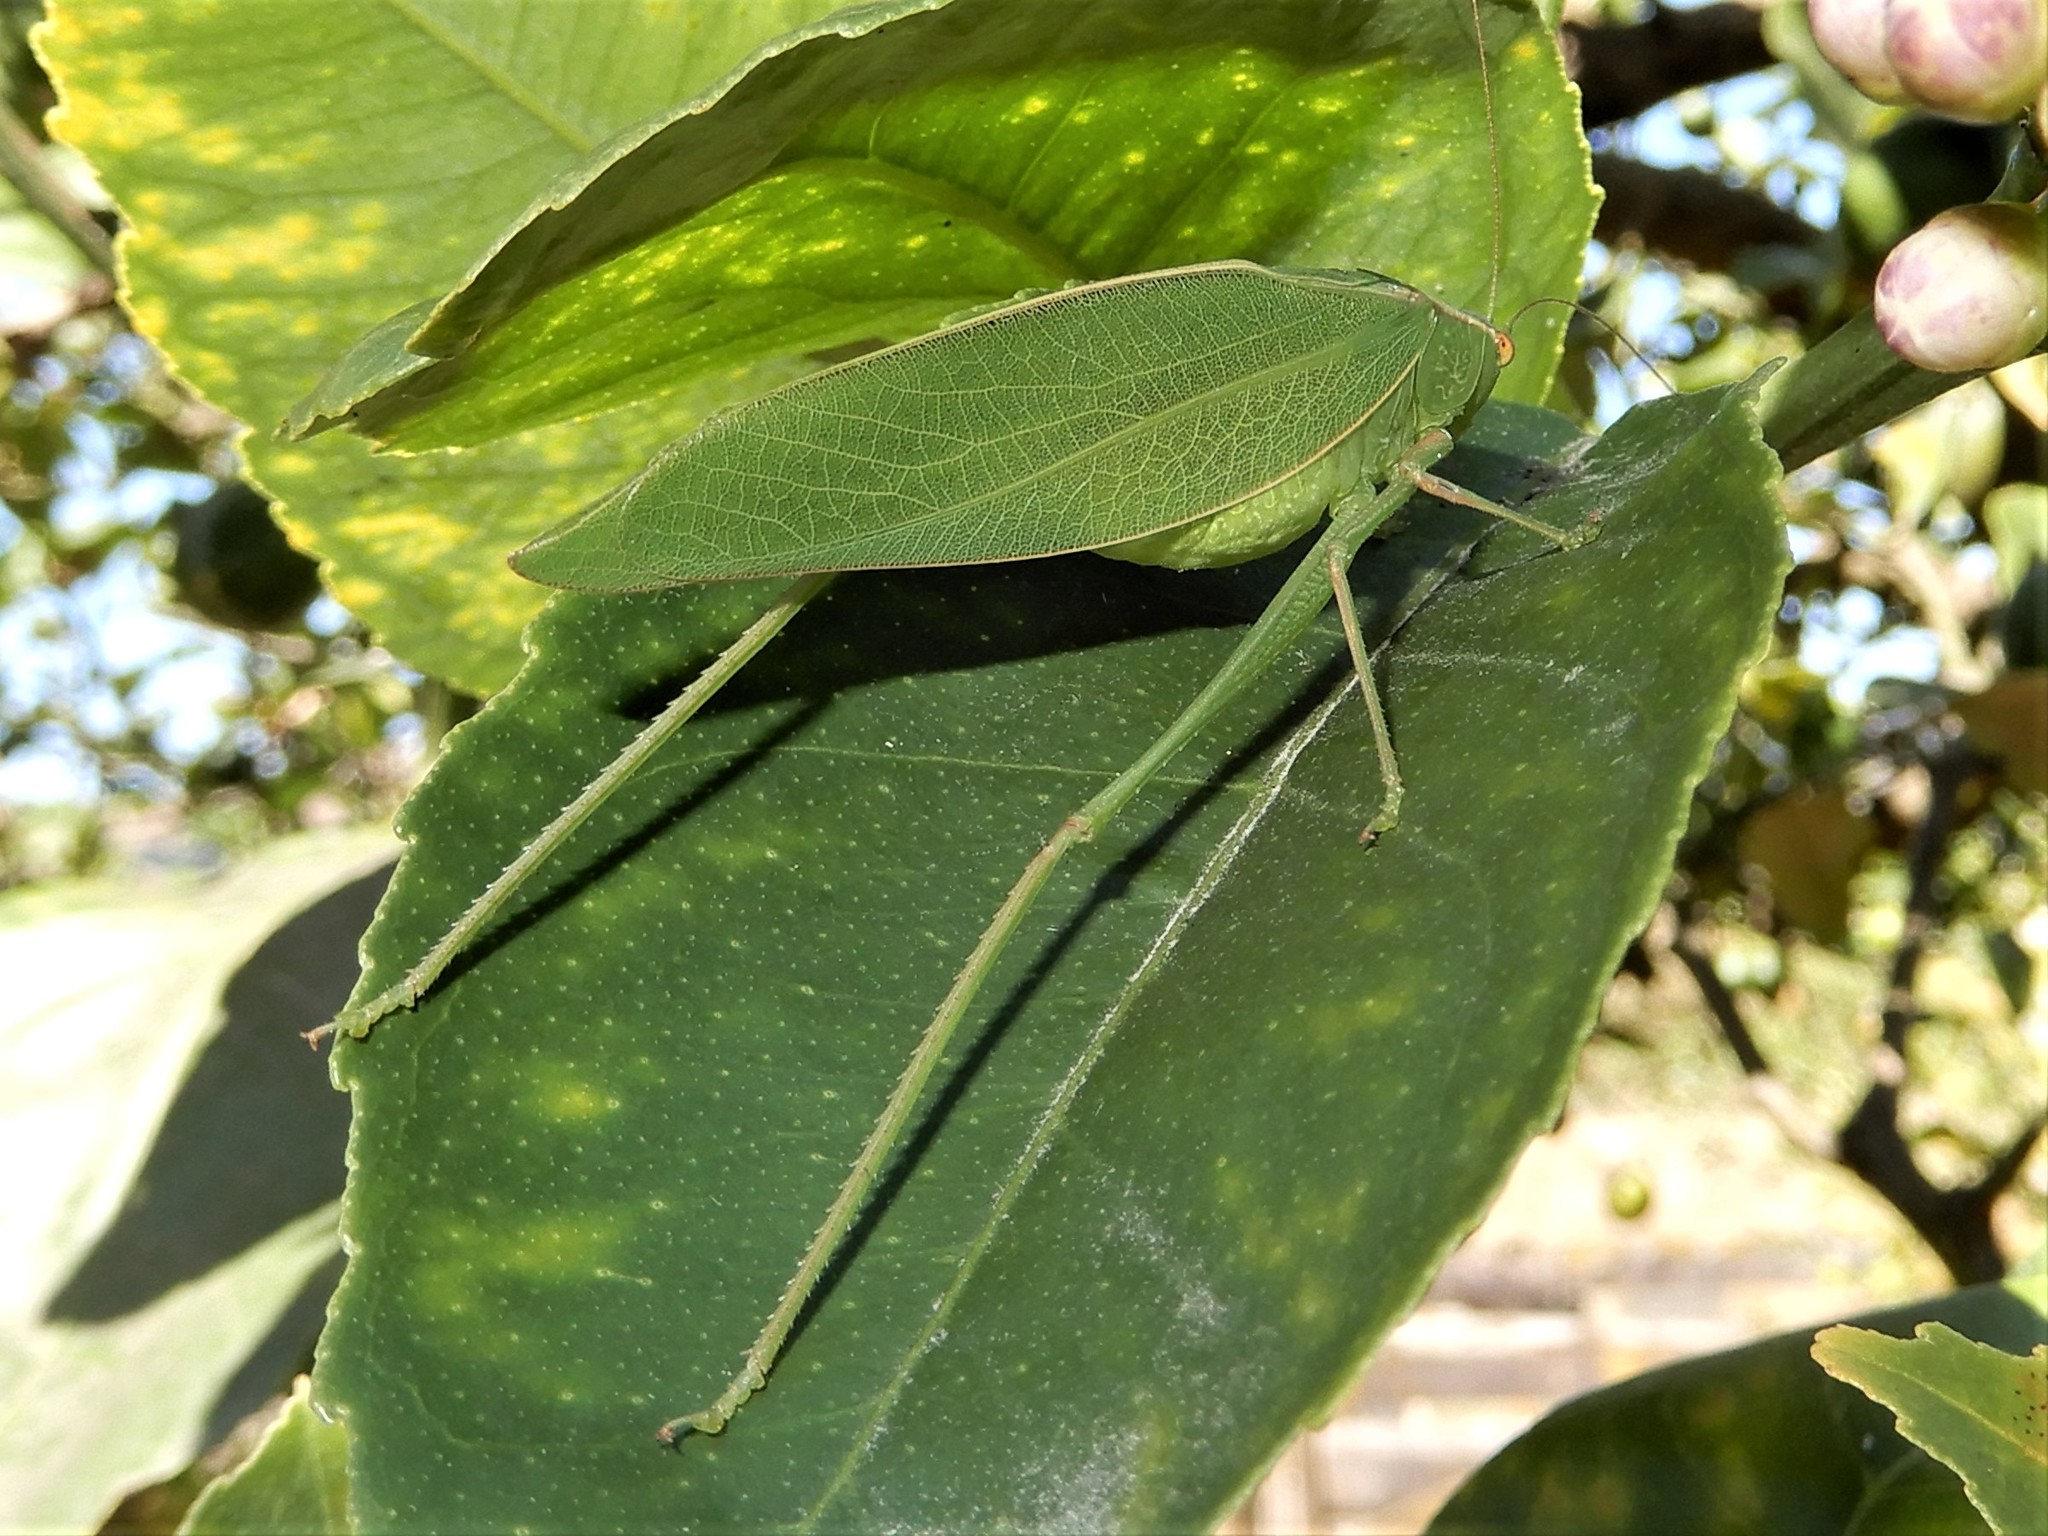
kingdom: Animalia
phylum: Arthropoda
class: Insecta
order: Orthoptera
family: Tettigoniidae
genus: Caedicia
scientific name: Caedicia simplex
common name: Common garden katydid
